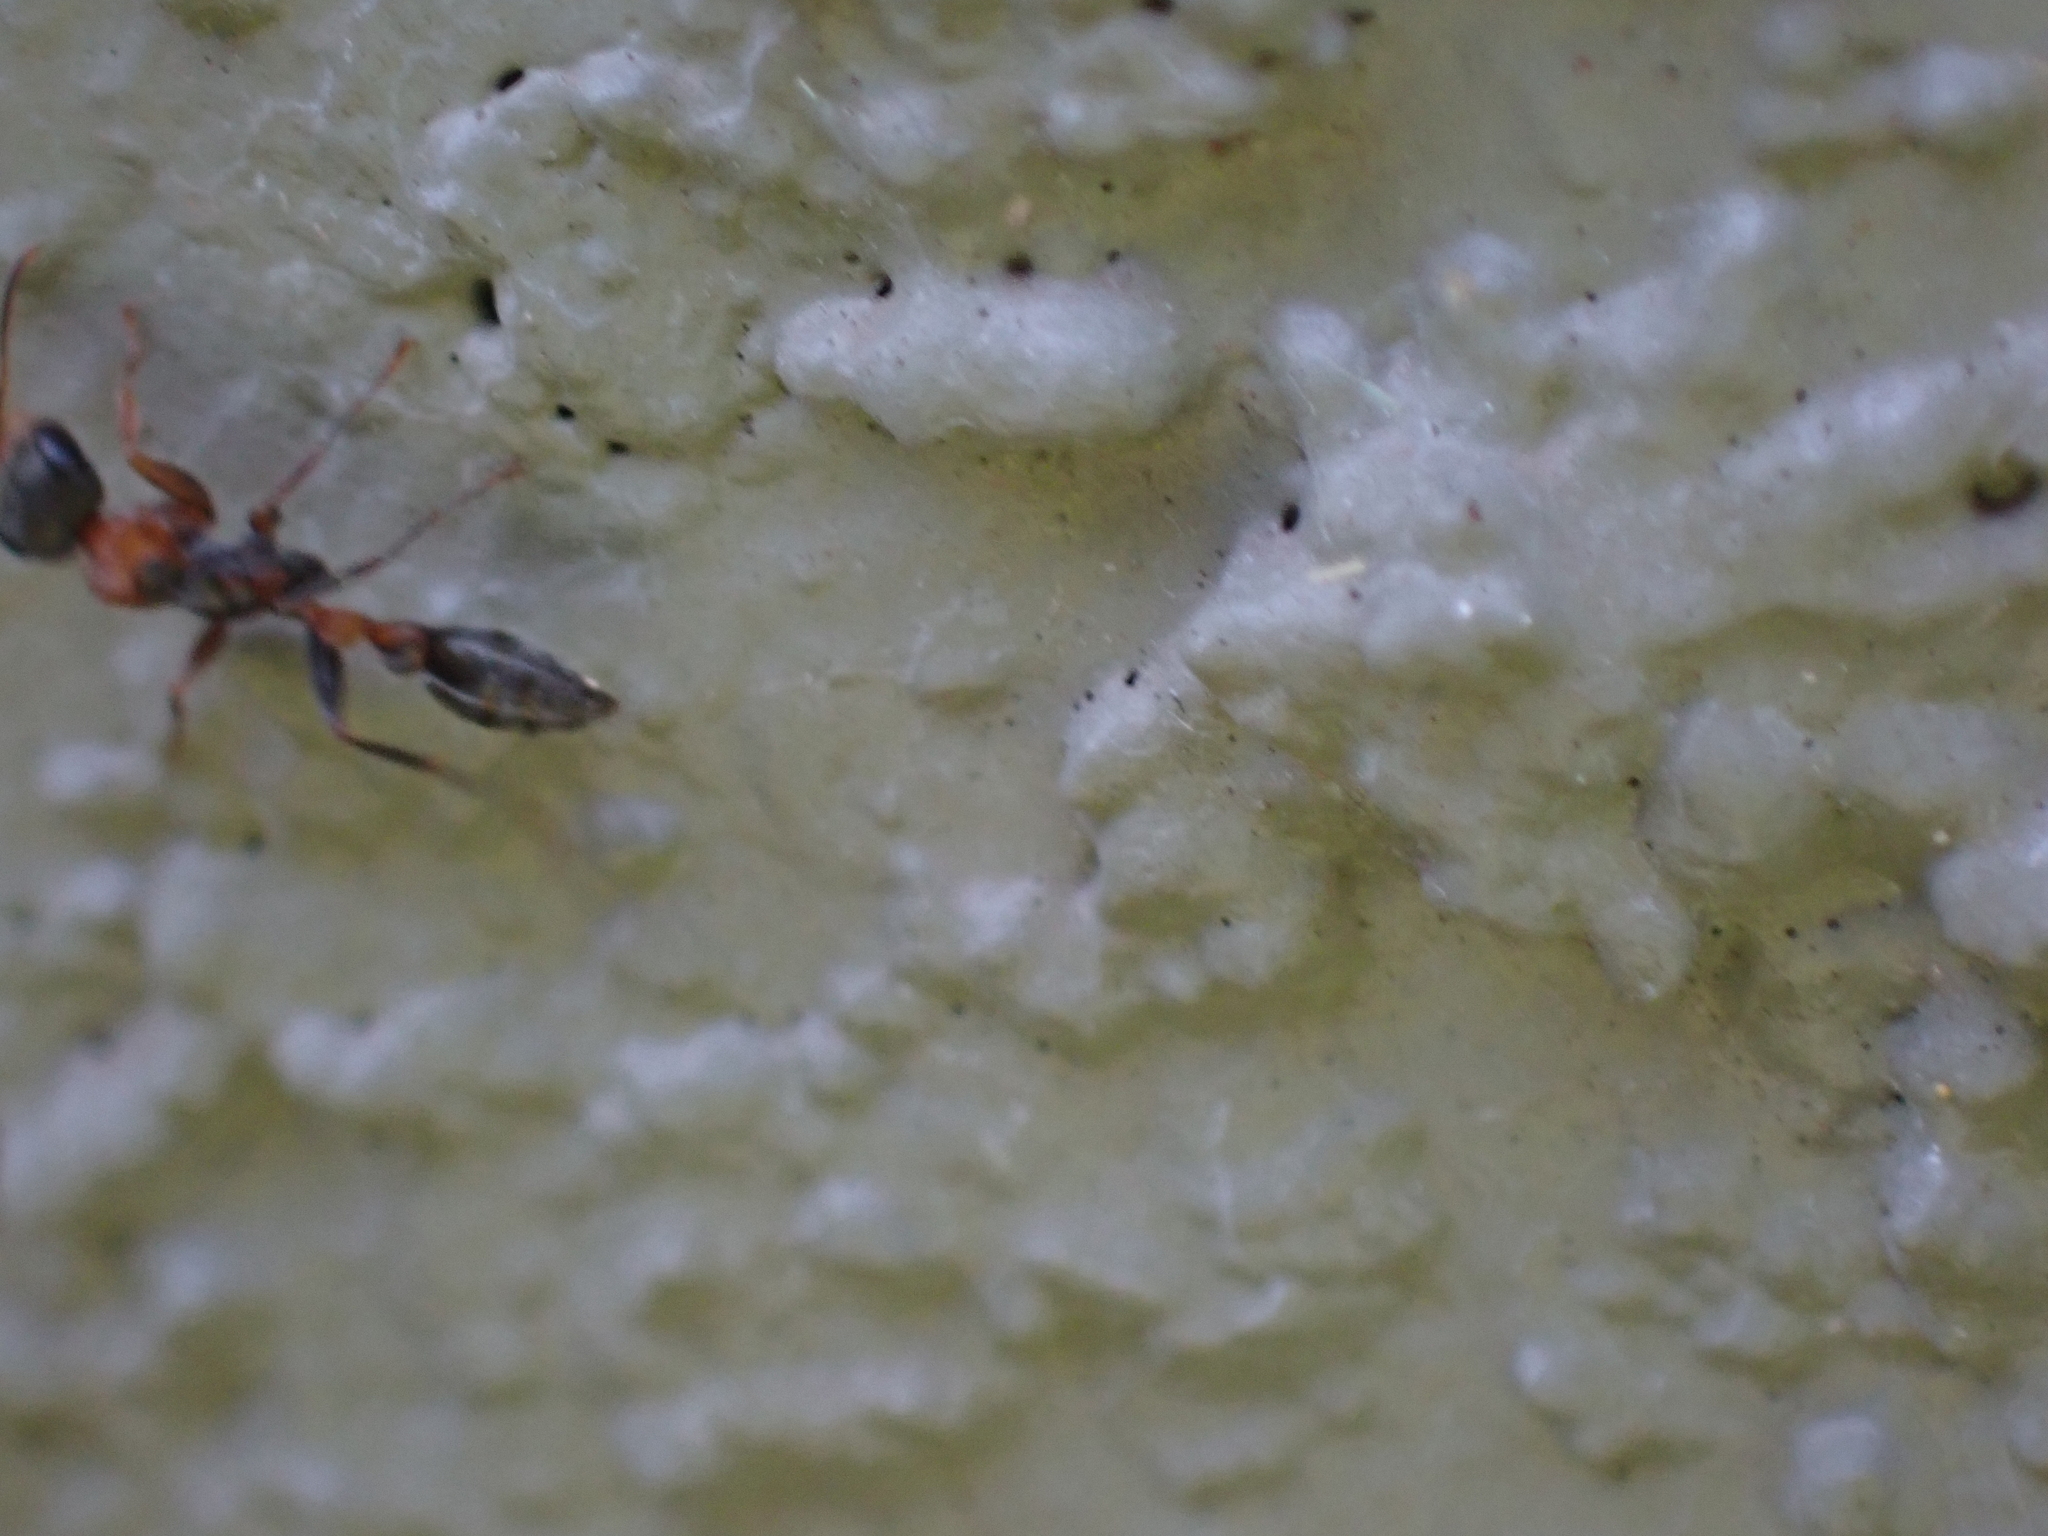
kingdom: Animalia
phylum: Arthropoda
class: Insecta
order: Hymenoptera
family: Formicidae
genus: Pseudomyrmex
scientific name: Pseudomyrmex gracilis
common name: Graceful twig ant
